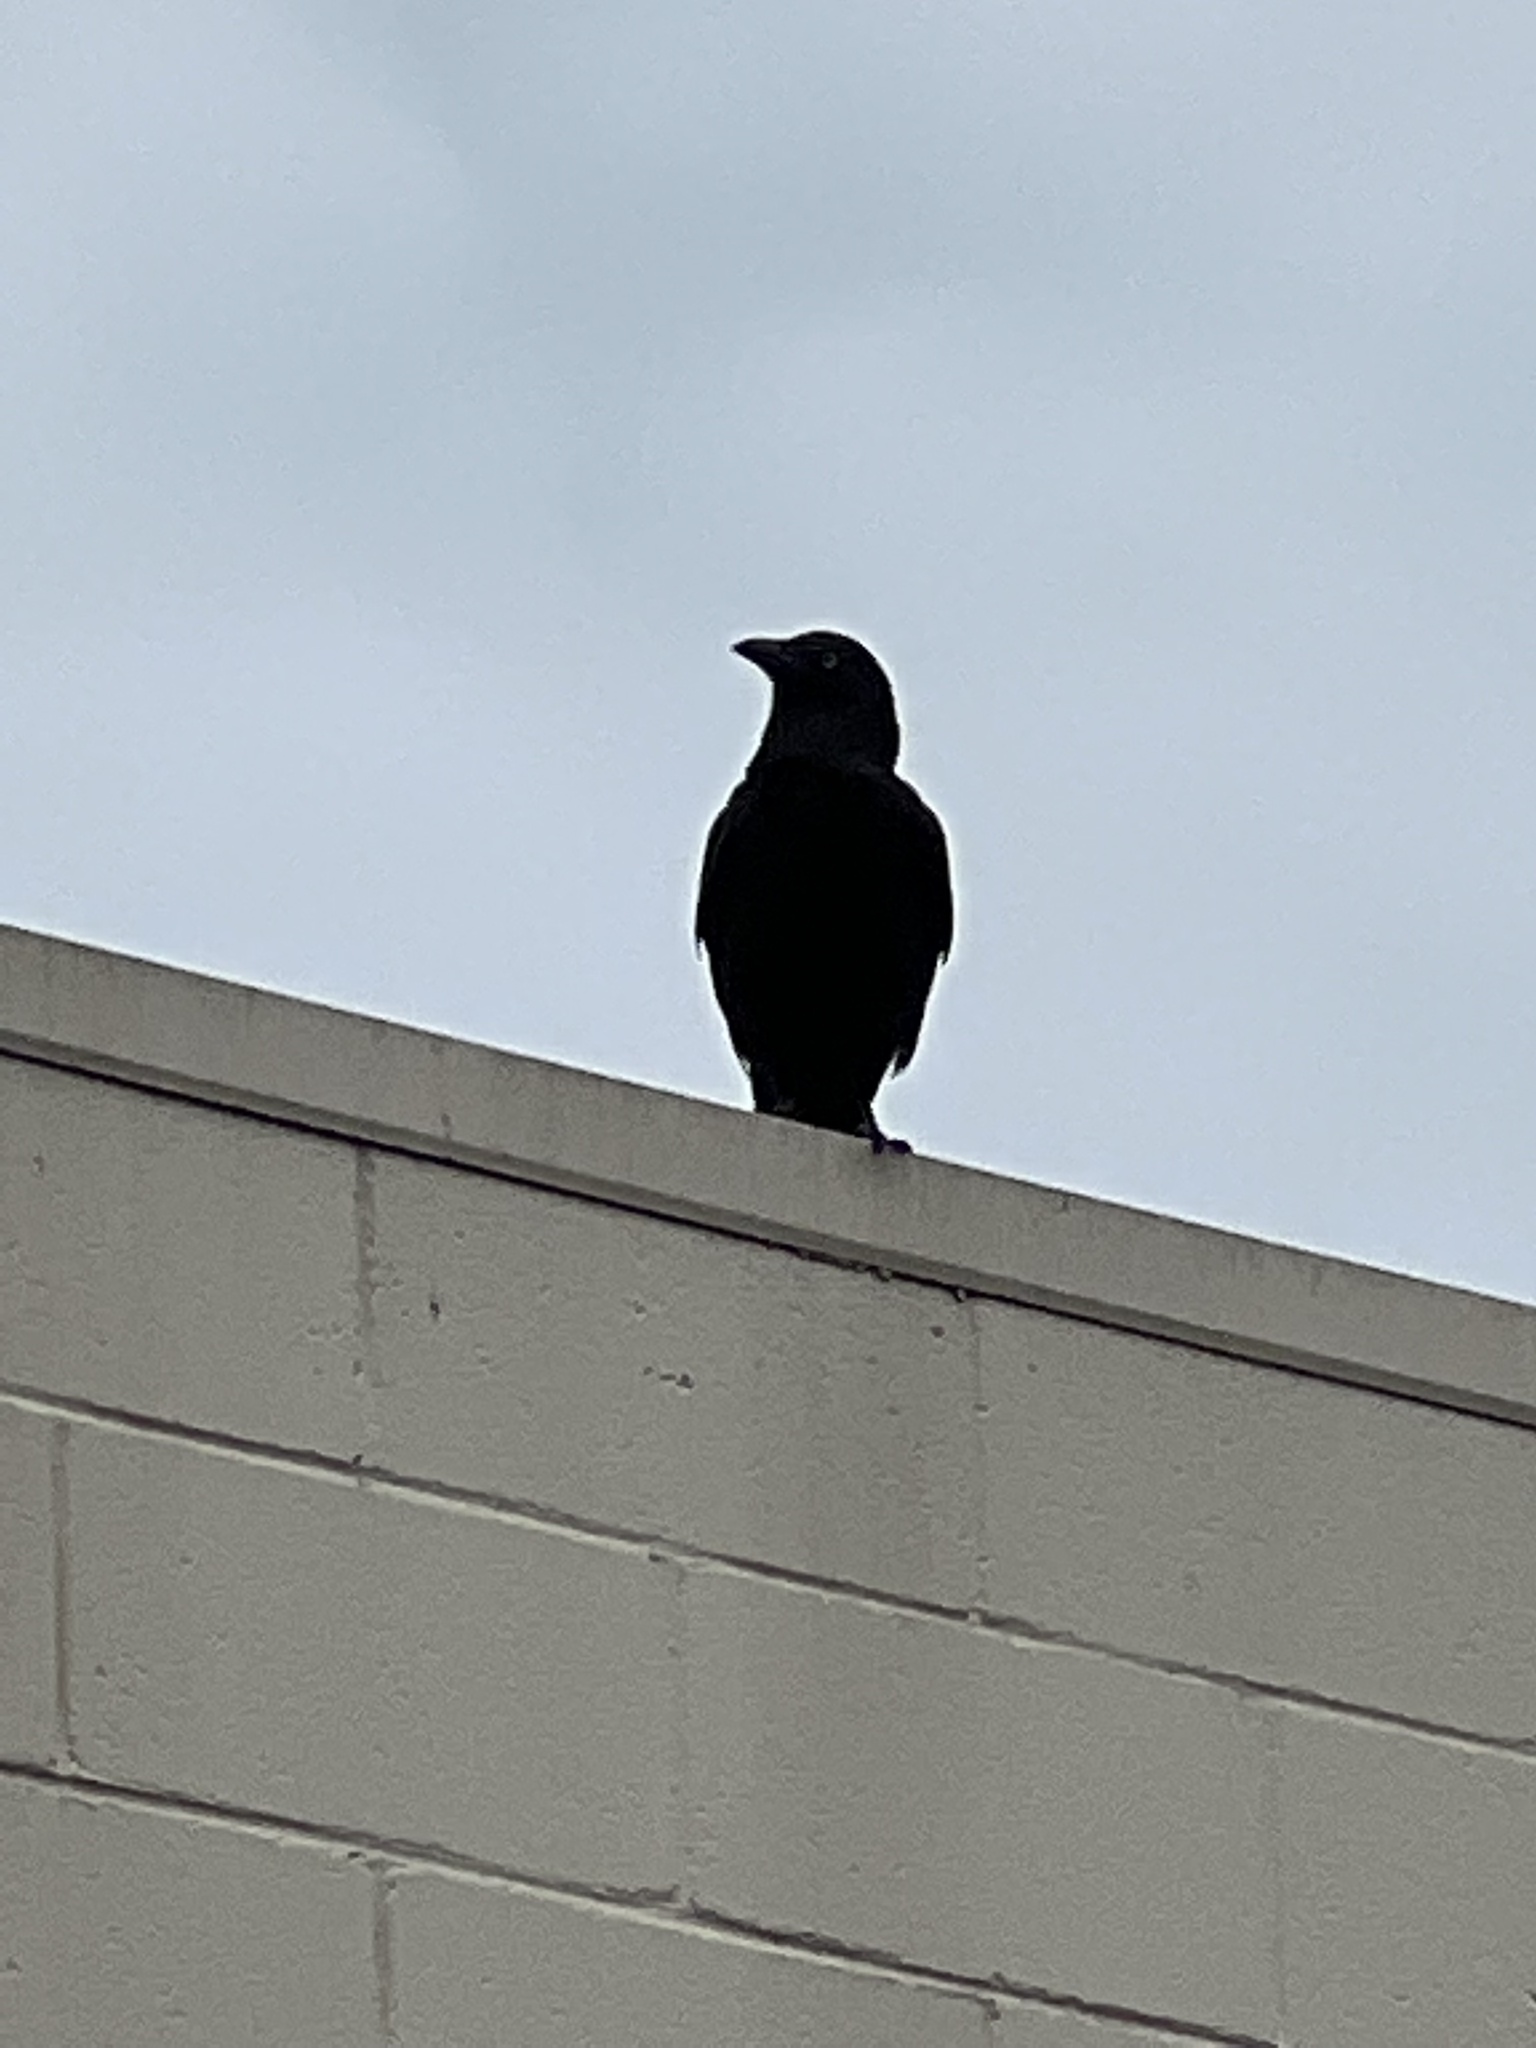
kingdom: Animalia
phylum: Chordata
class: Aves
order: Passeriformes
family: Corvidae
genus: Corvus
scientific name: Corvus mellori
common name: Little raven
